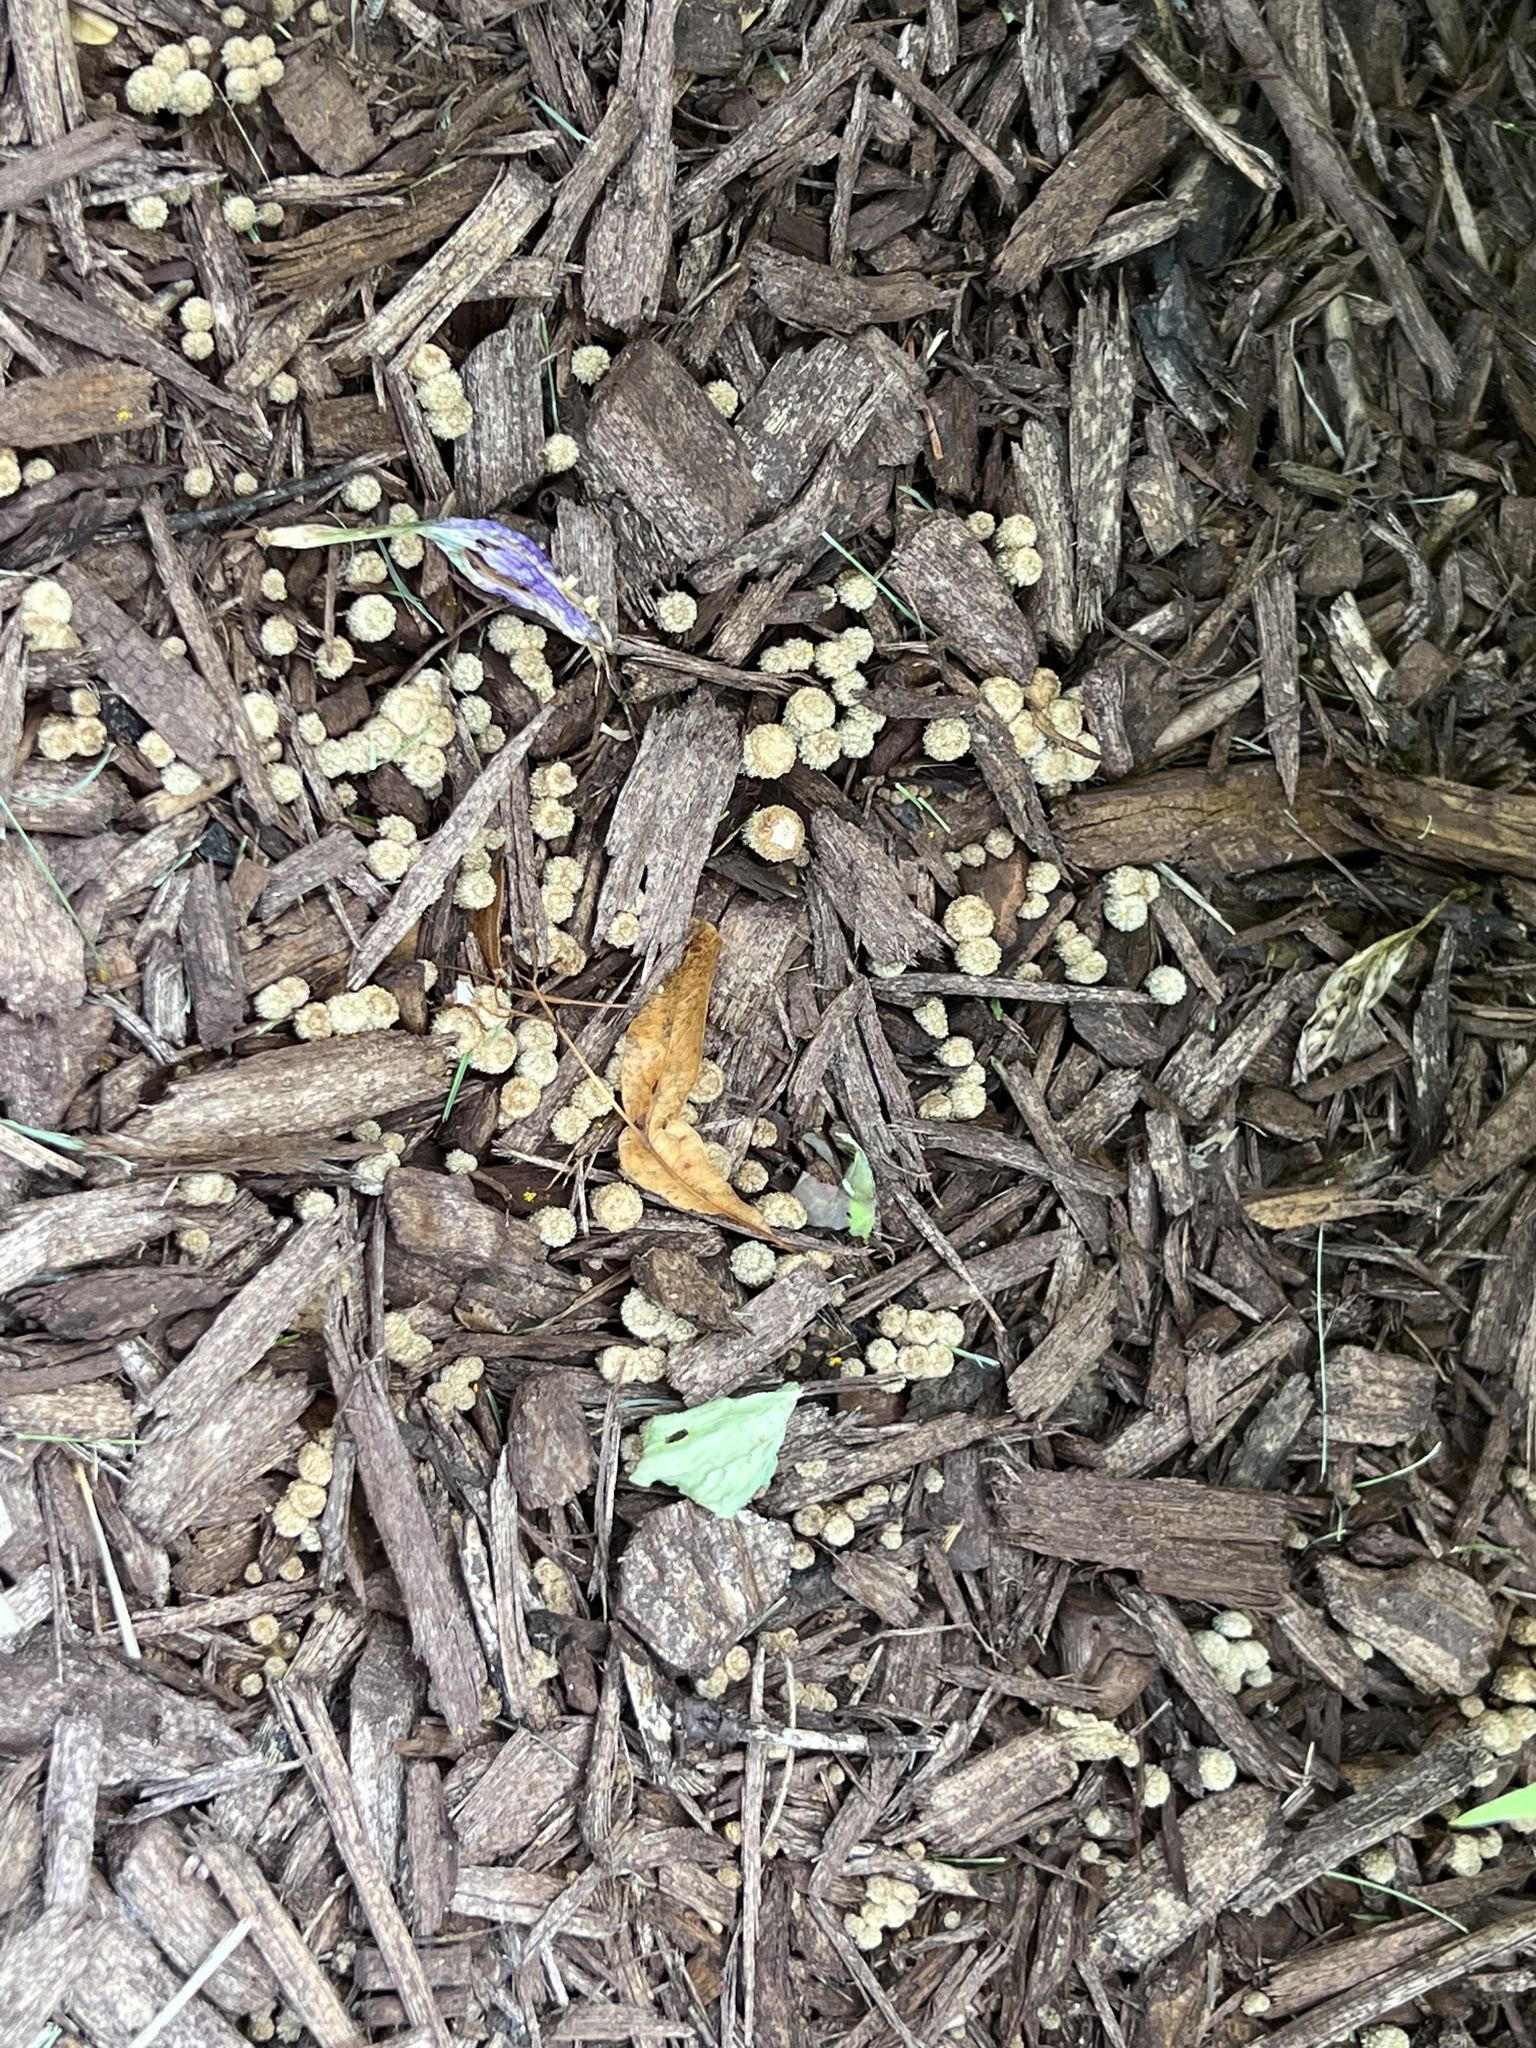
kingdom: Fungi
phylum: Basidiomycota
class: Agaricomycetes
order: Agaricales
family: Agaricaceae
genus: Cyathus
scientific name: Cyathus striatus
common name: Fluted bird's nest
